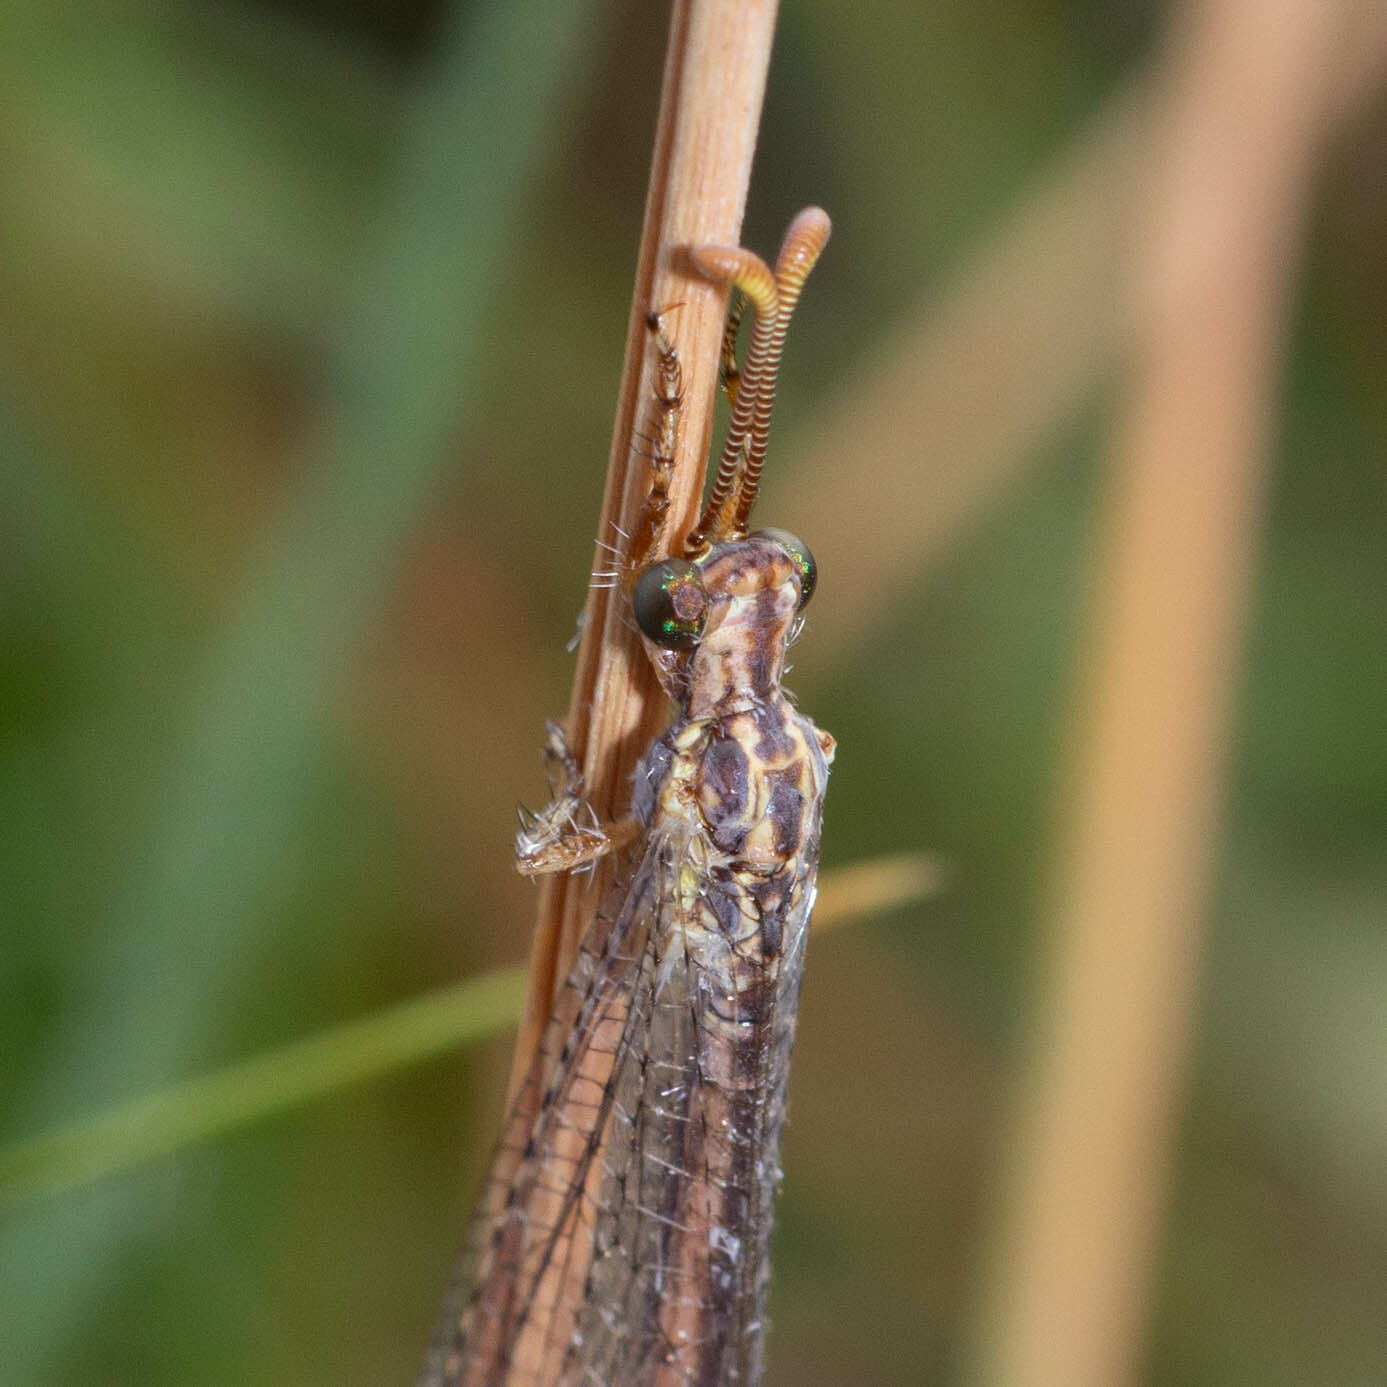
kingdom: Animalia
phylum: Arthropoda
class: Insecta
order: Neuroptera
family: Myrmeleontidae
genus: Macronemurus
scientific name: Macronemurus appendiculatus
